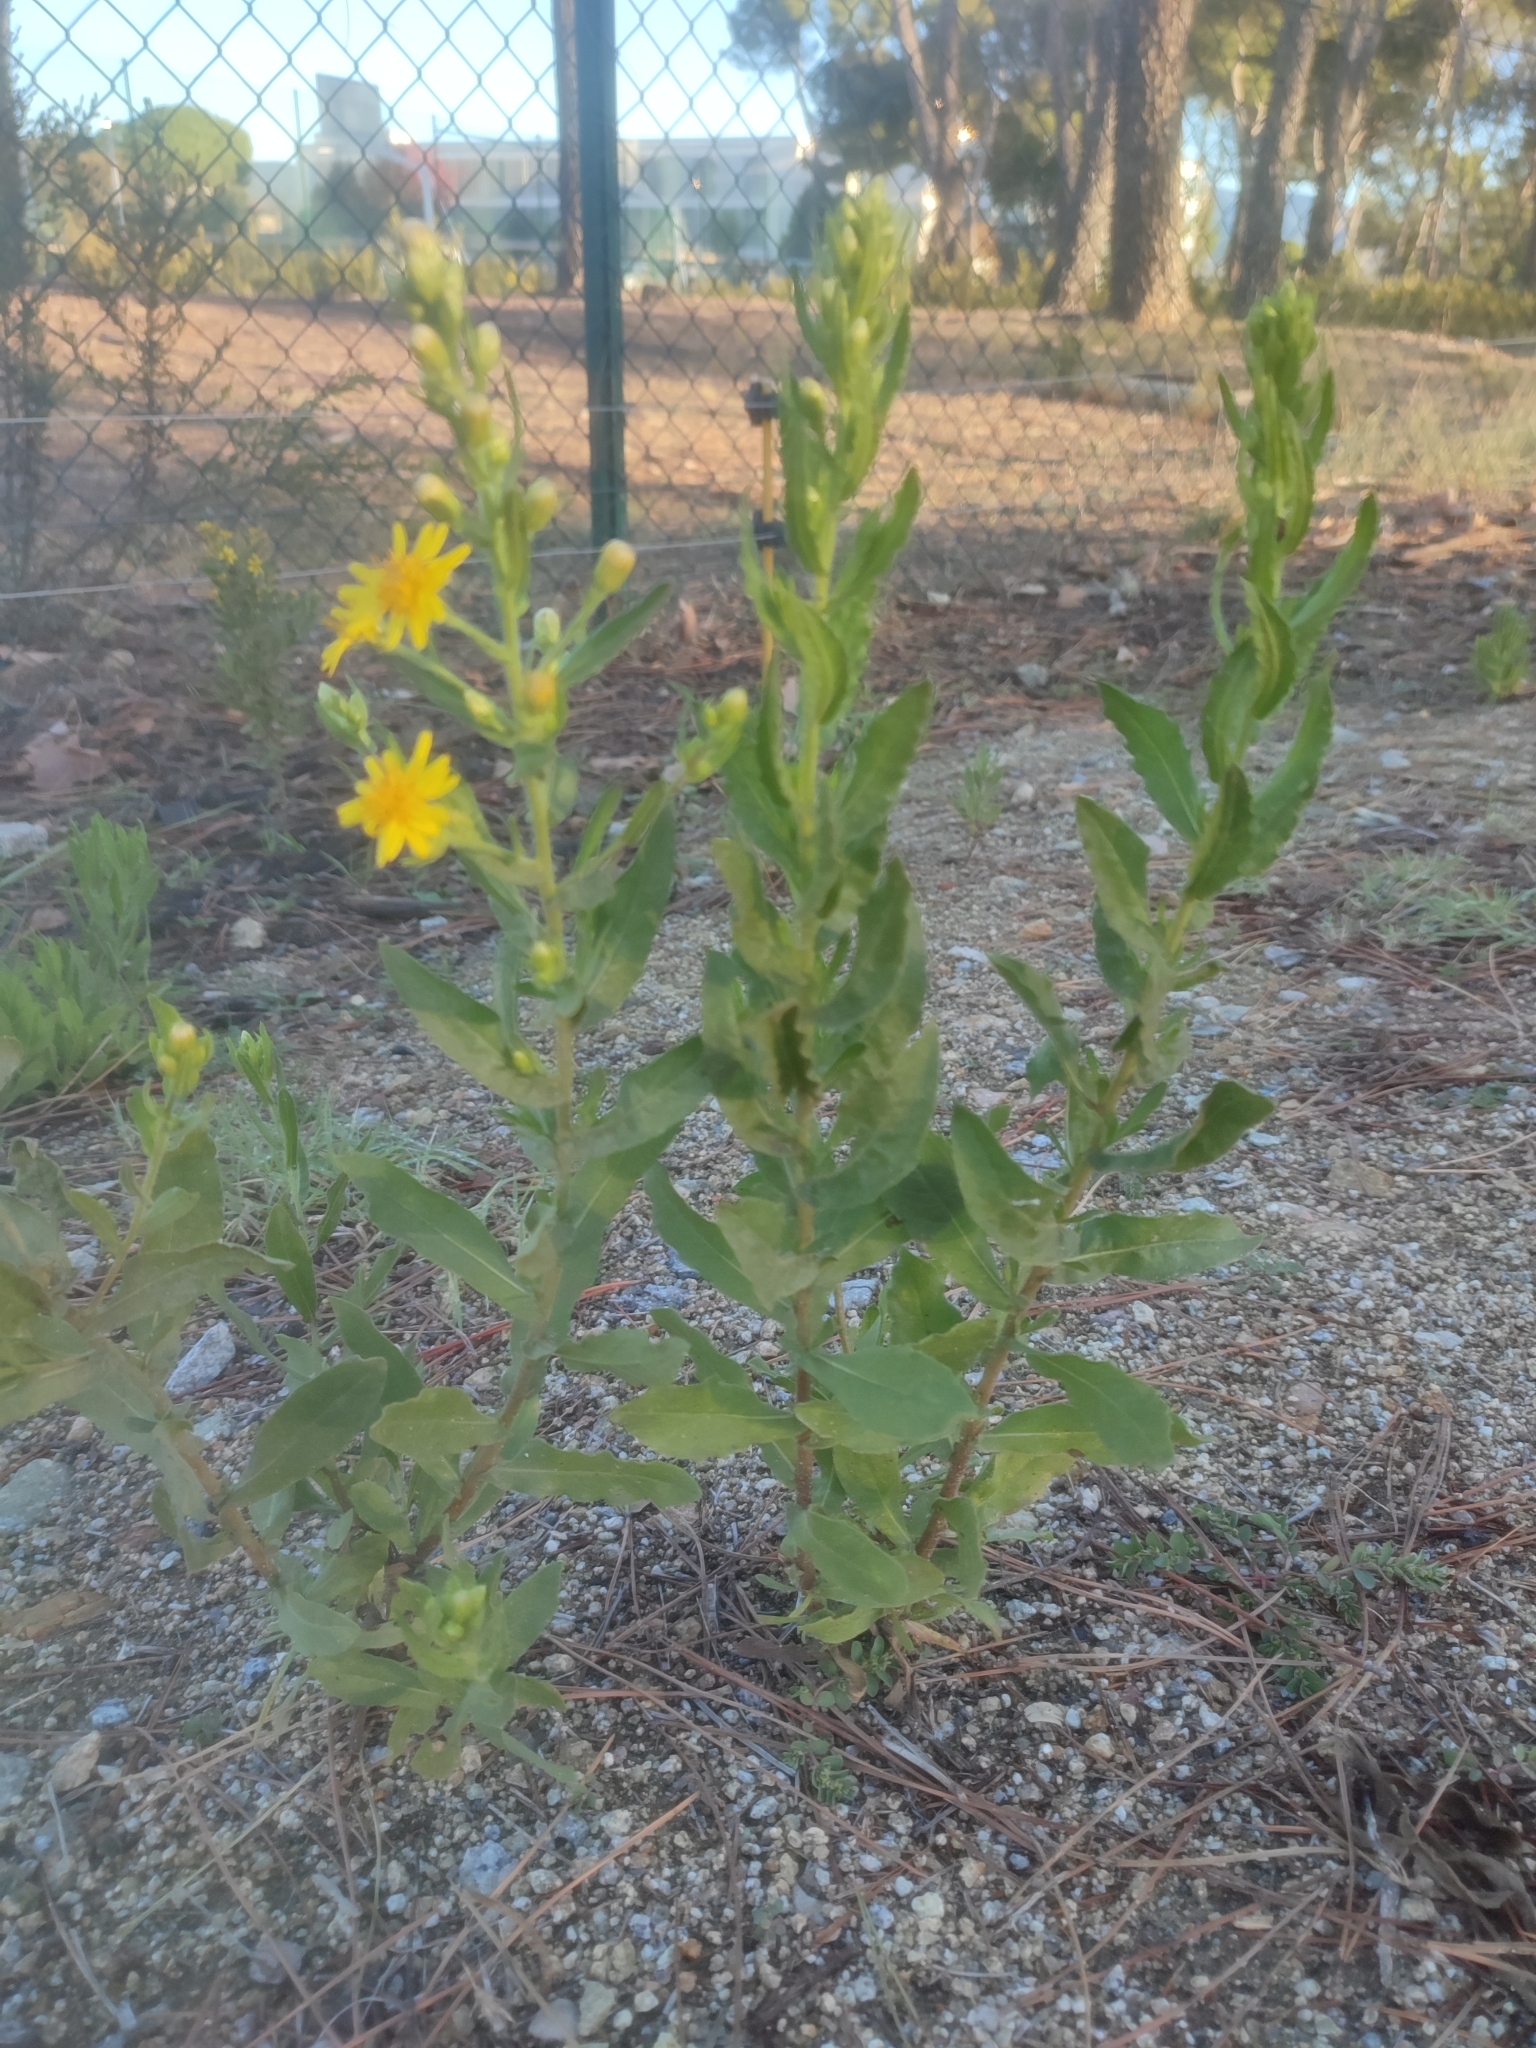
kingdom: Plantae
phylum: Tracheophyta
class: Magnoliopsida
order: Asterales
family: Asteraceae
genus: Dittrichia
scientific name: Dittrichia viscosa
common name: Woody fleabane
